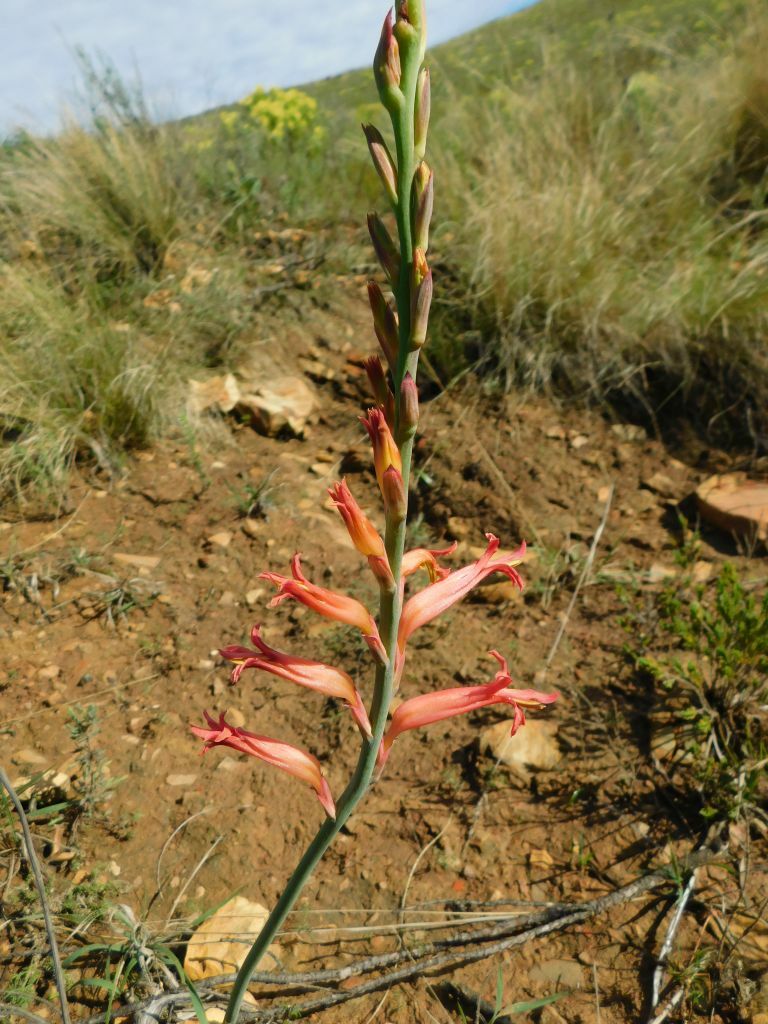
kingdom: Plantae
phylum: Tracheophyta
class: Liliopsida
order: Asparagales
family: Iridaceae
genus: Tritoniopsis
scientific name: Tritoniopsis antholyza
